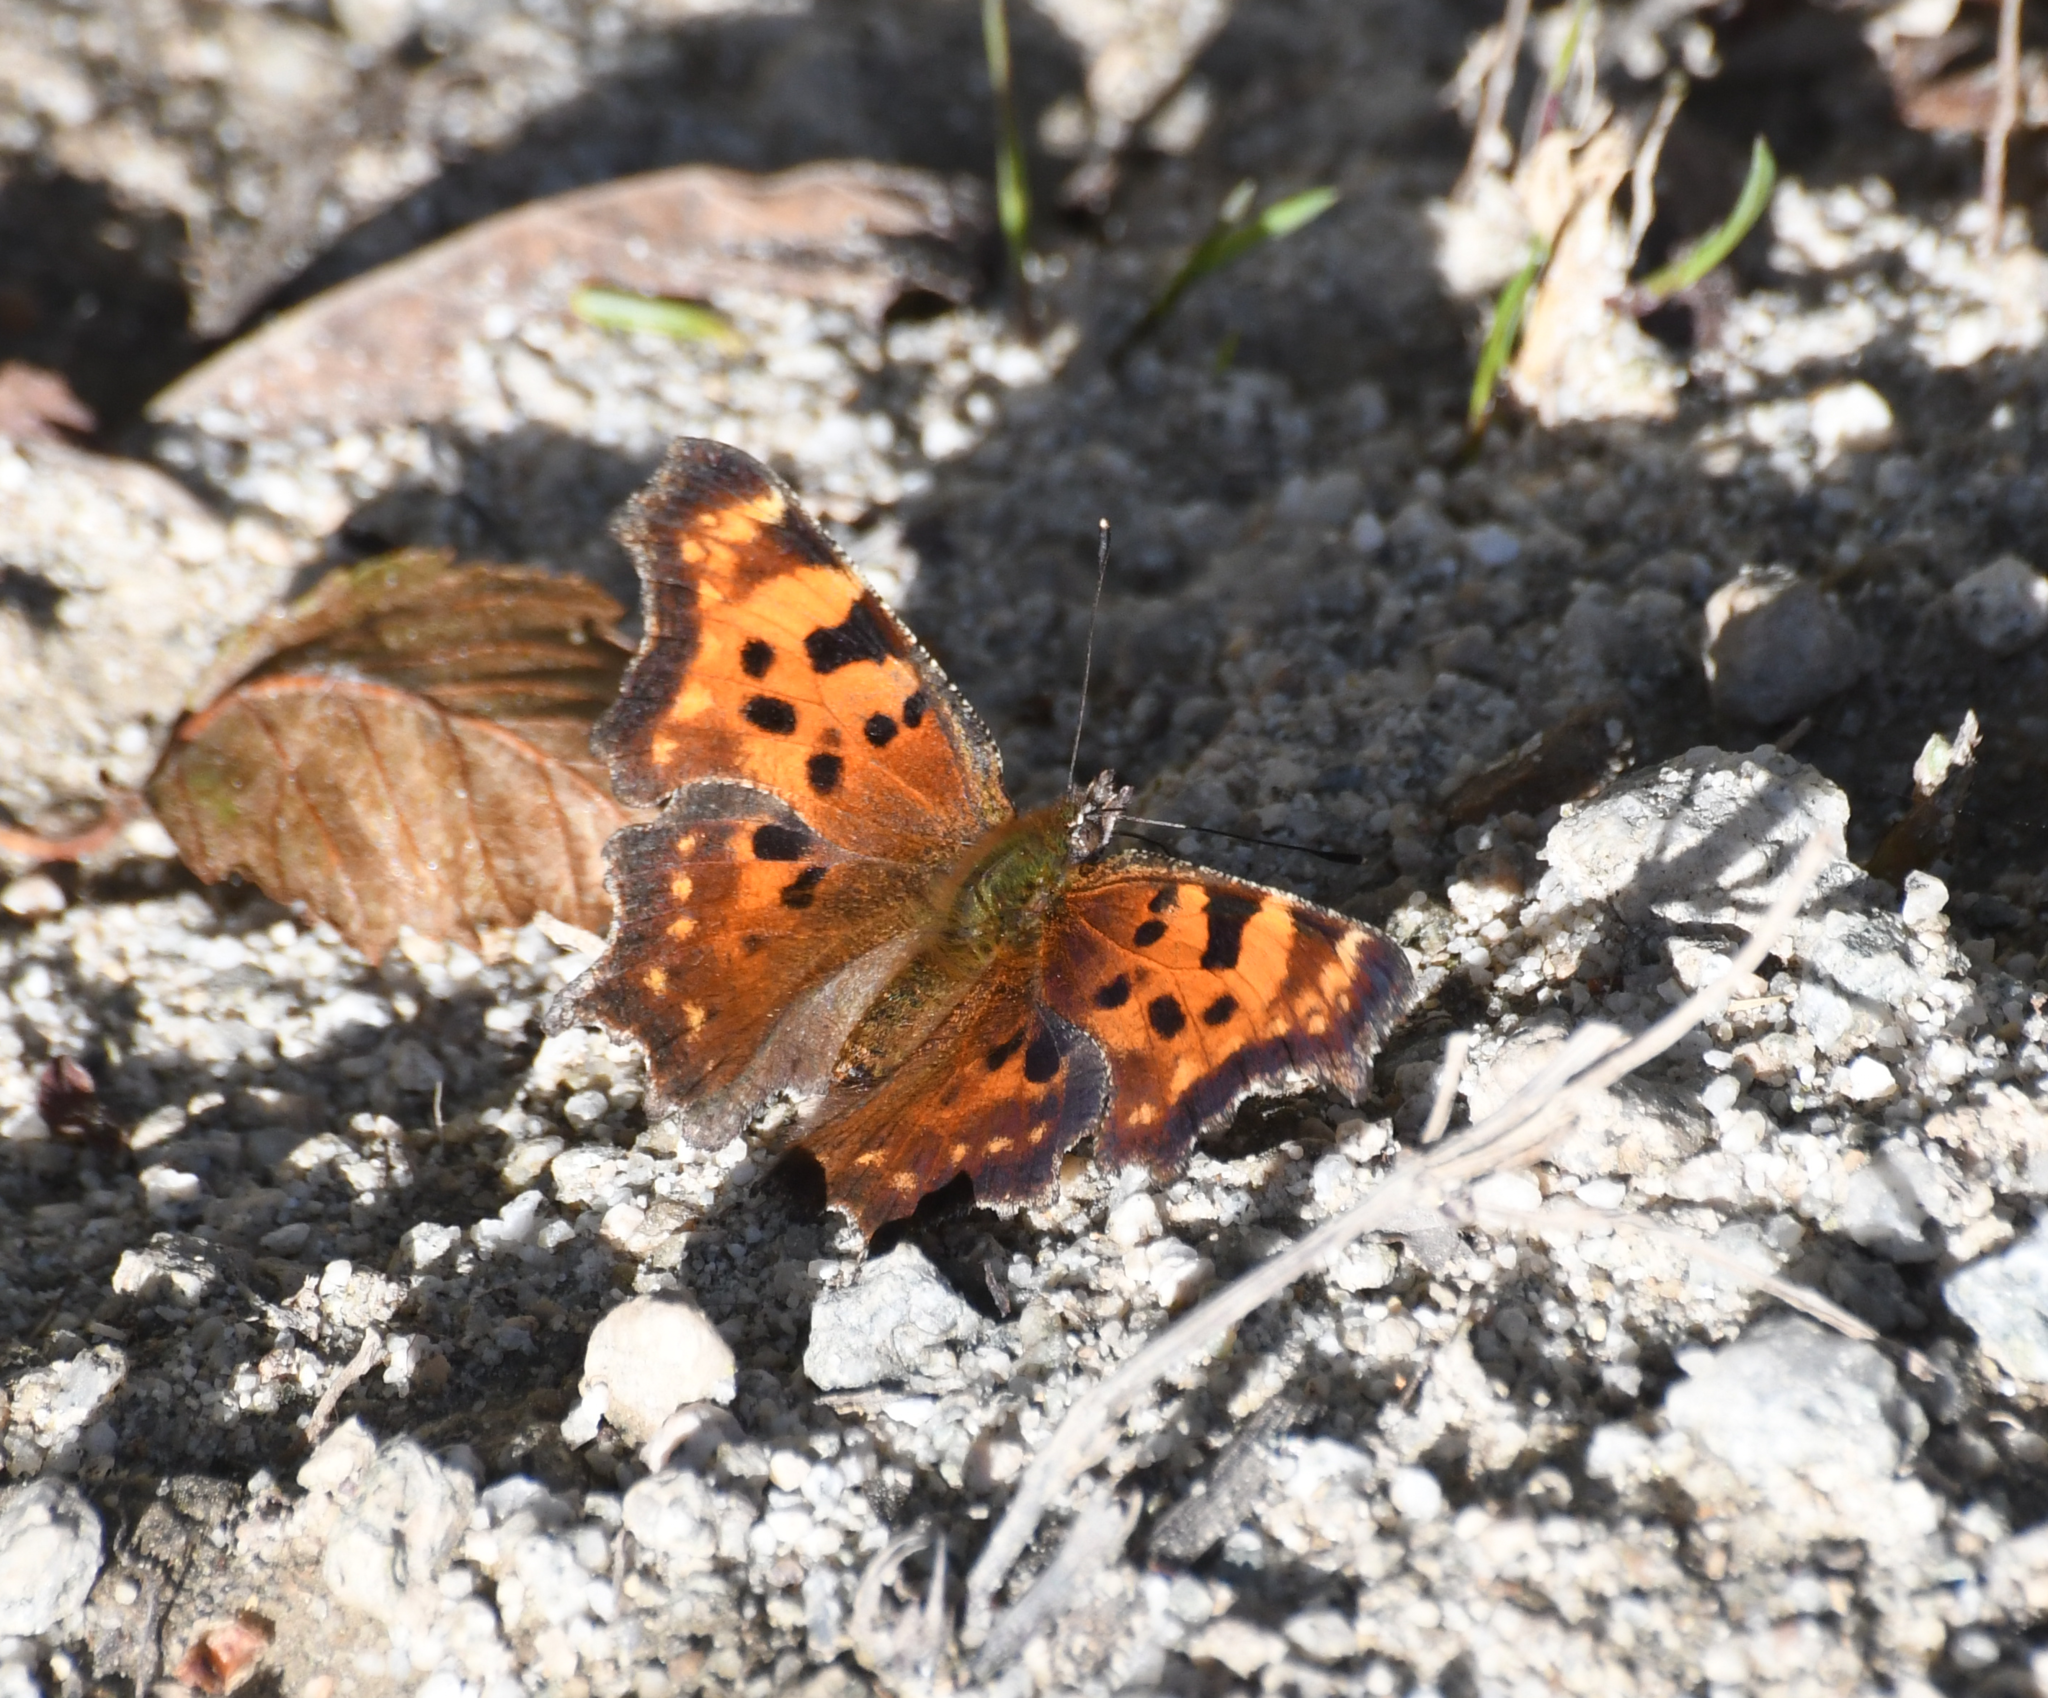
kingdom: Animalia
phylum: Arthropoda
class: Insecta
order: Lepidoptera
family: Nymphalidae
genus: Polygonia
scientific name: Polygonia faunus
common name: Green comma
